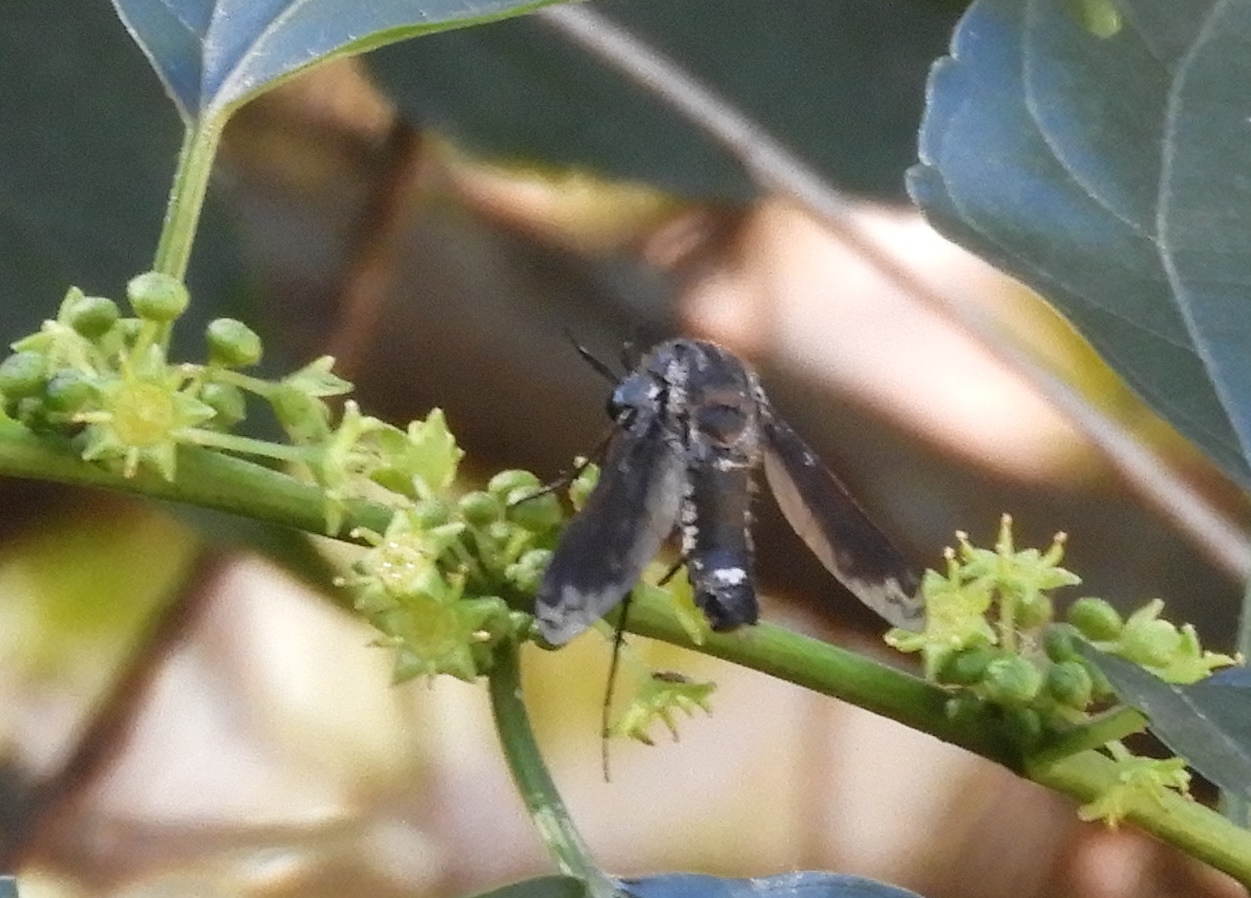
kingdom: Animalia
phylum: Arthropoda
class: Insecta
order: Diptera
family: Bombyliidae
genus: Lepidophora
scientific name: Lepidophora vetusta
